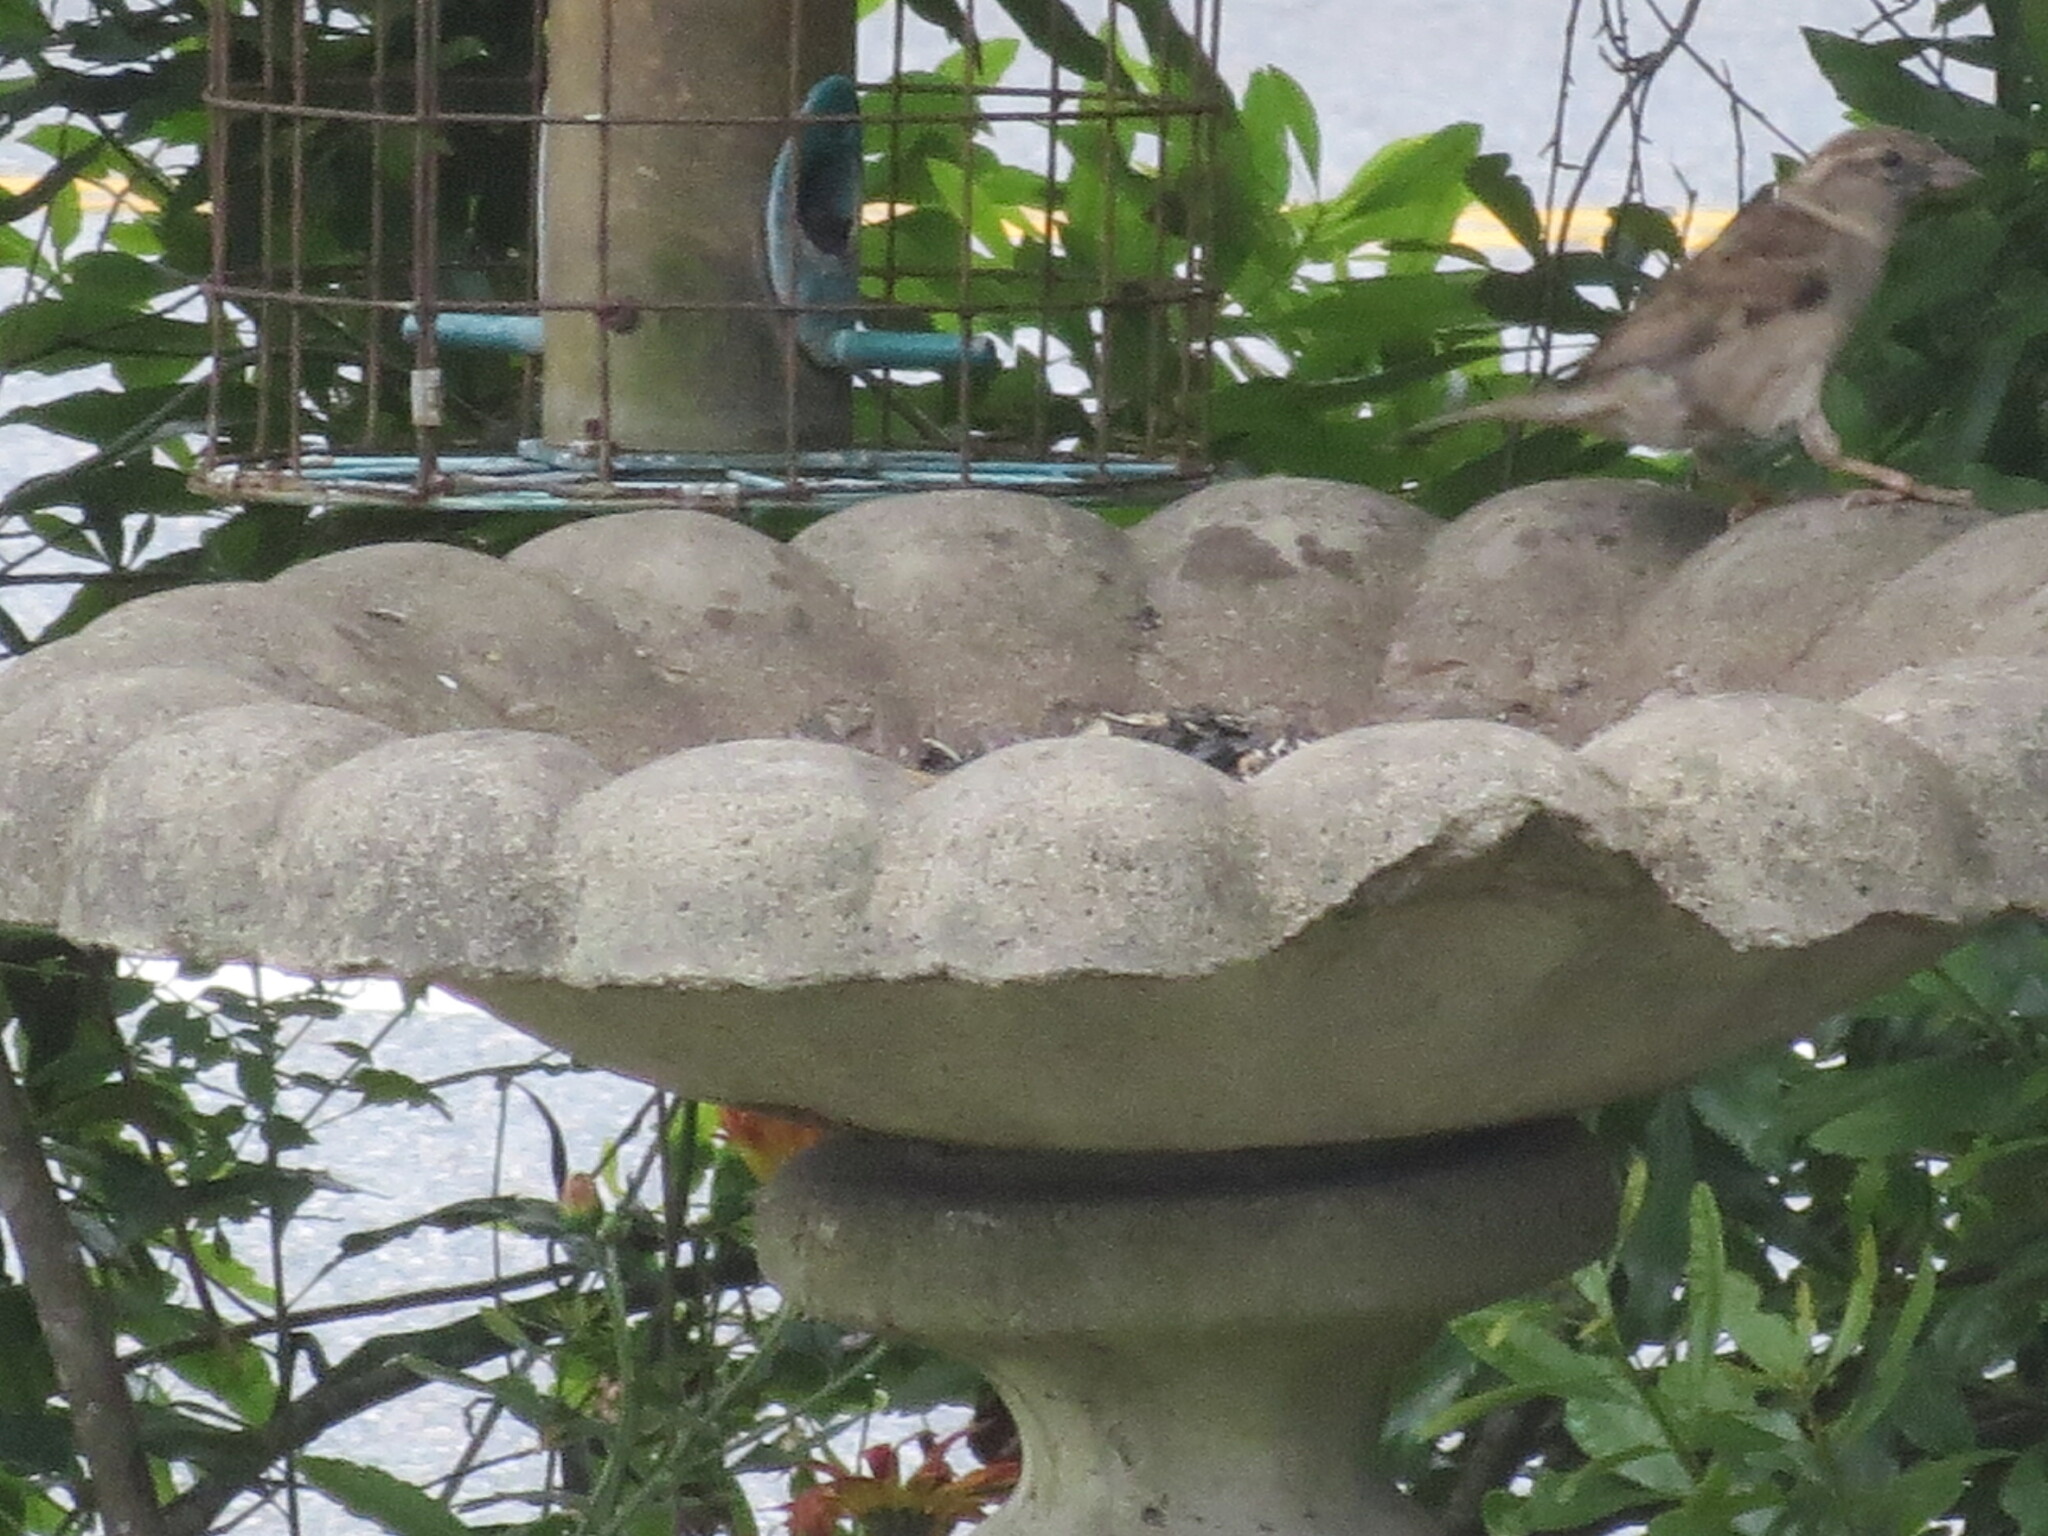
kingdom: Animalia
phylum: Chordata
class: Aves
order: Passeriformes
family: Passeridae
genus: Passer
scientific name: Passer domesticus
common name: House sparrow
